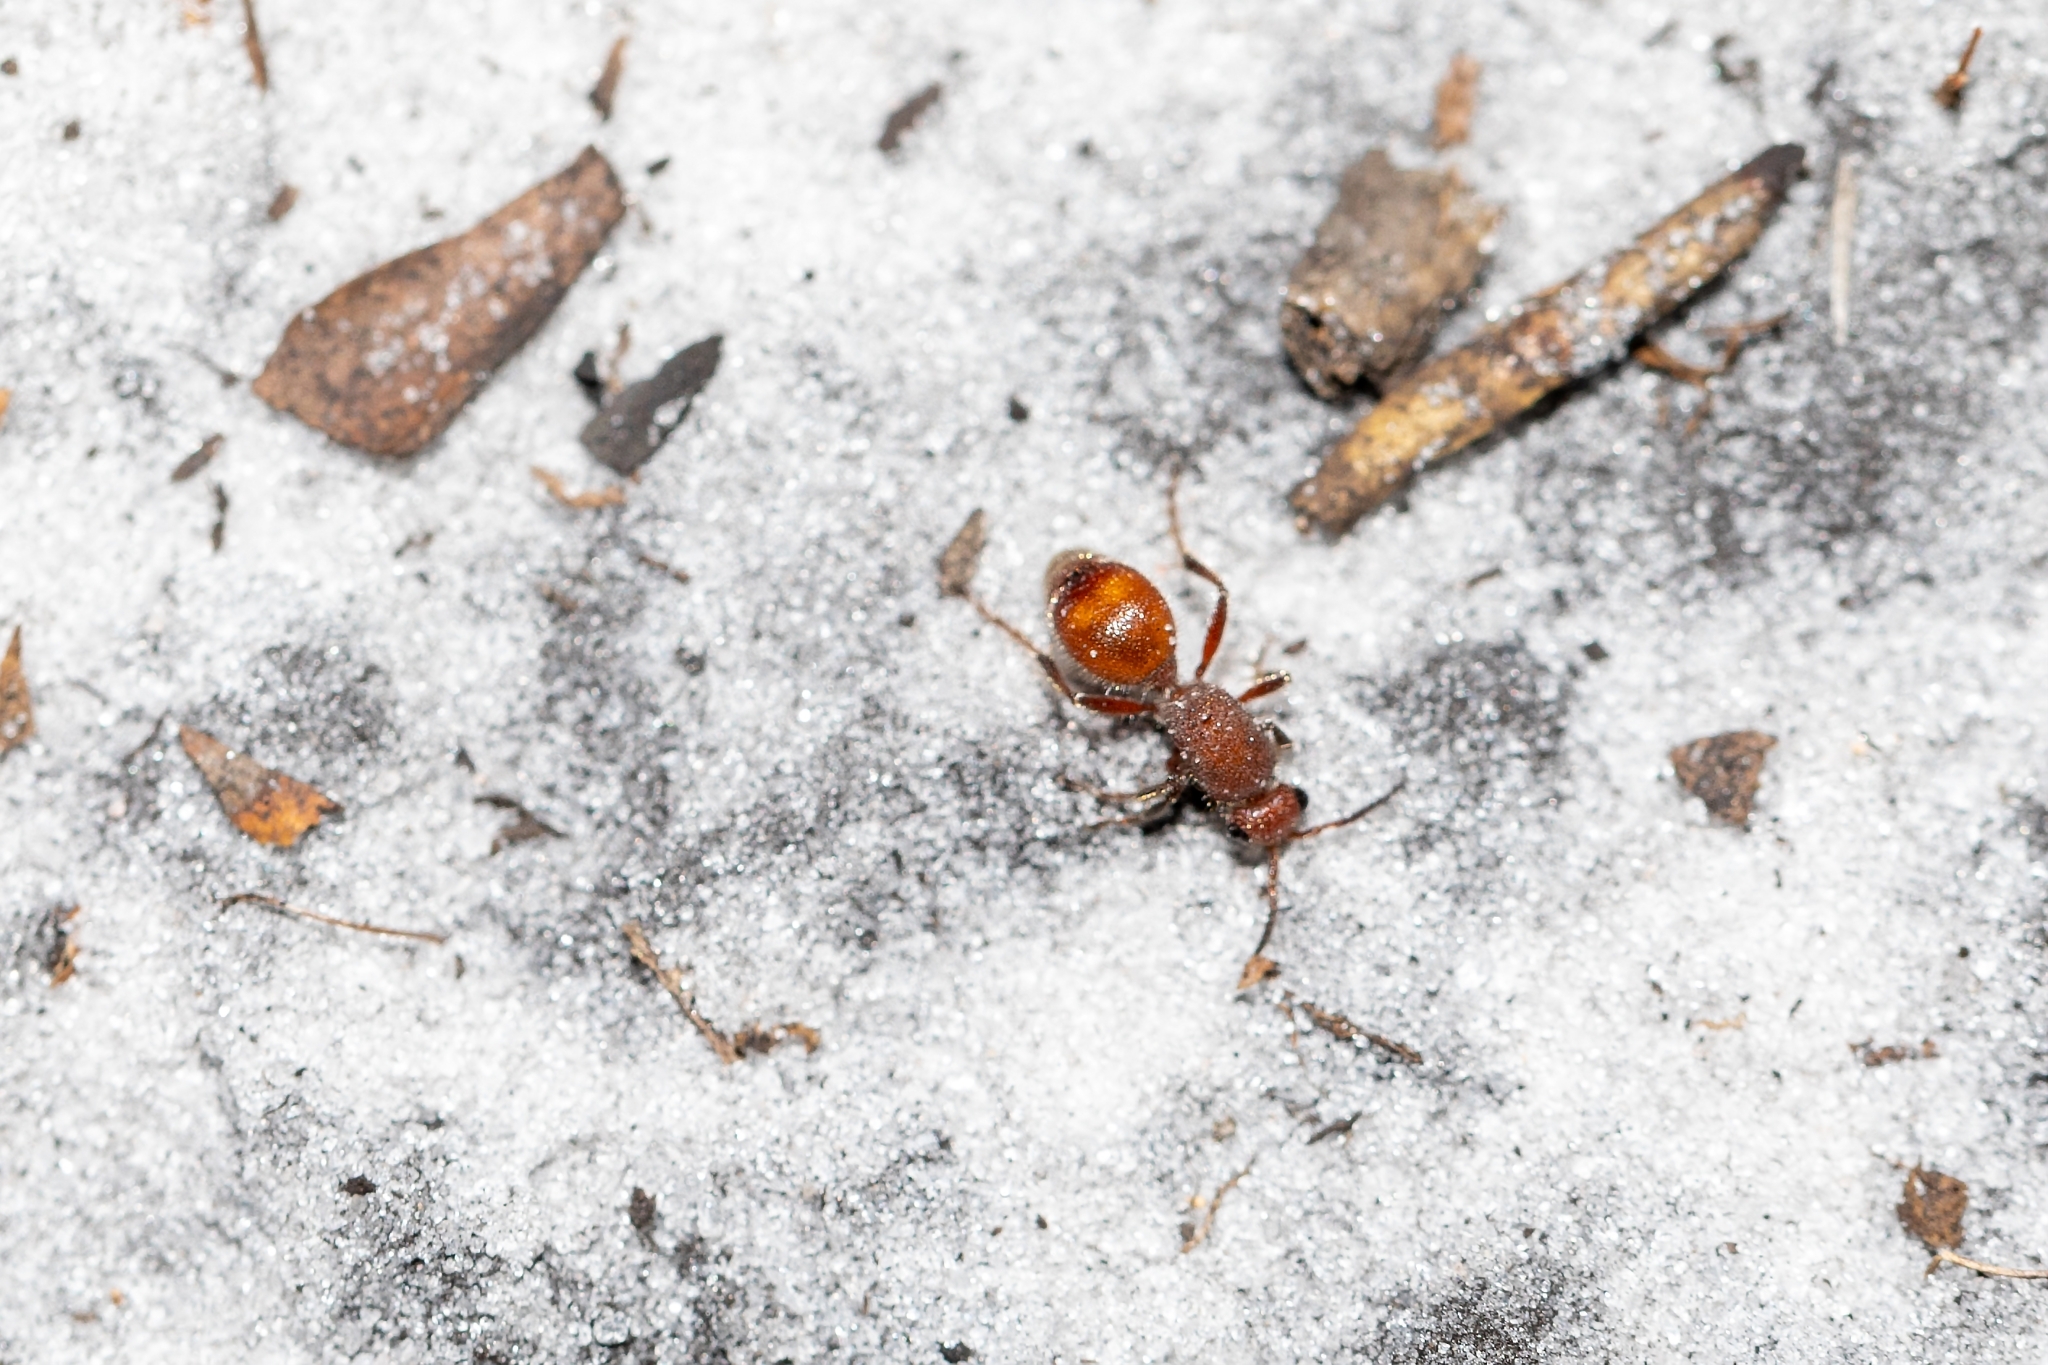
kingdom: Animalia
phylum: Arthropoda
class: Insecta
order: Hymenoptera
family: Mutillidae
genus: Dasymutilla
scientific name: Dasymutilla arenerronea
